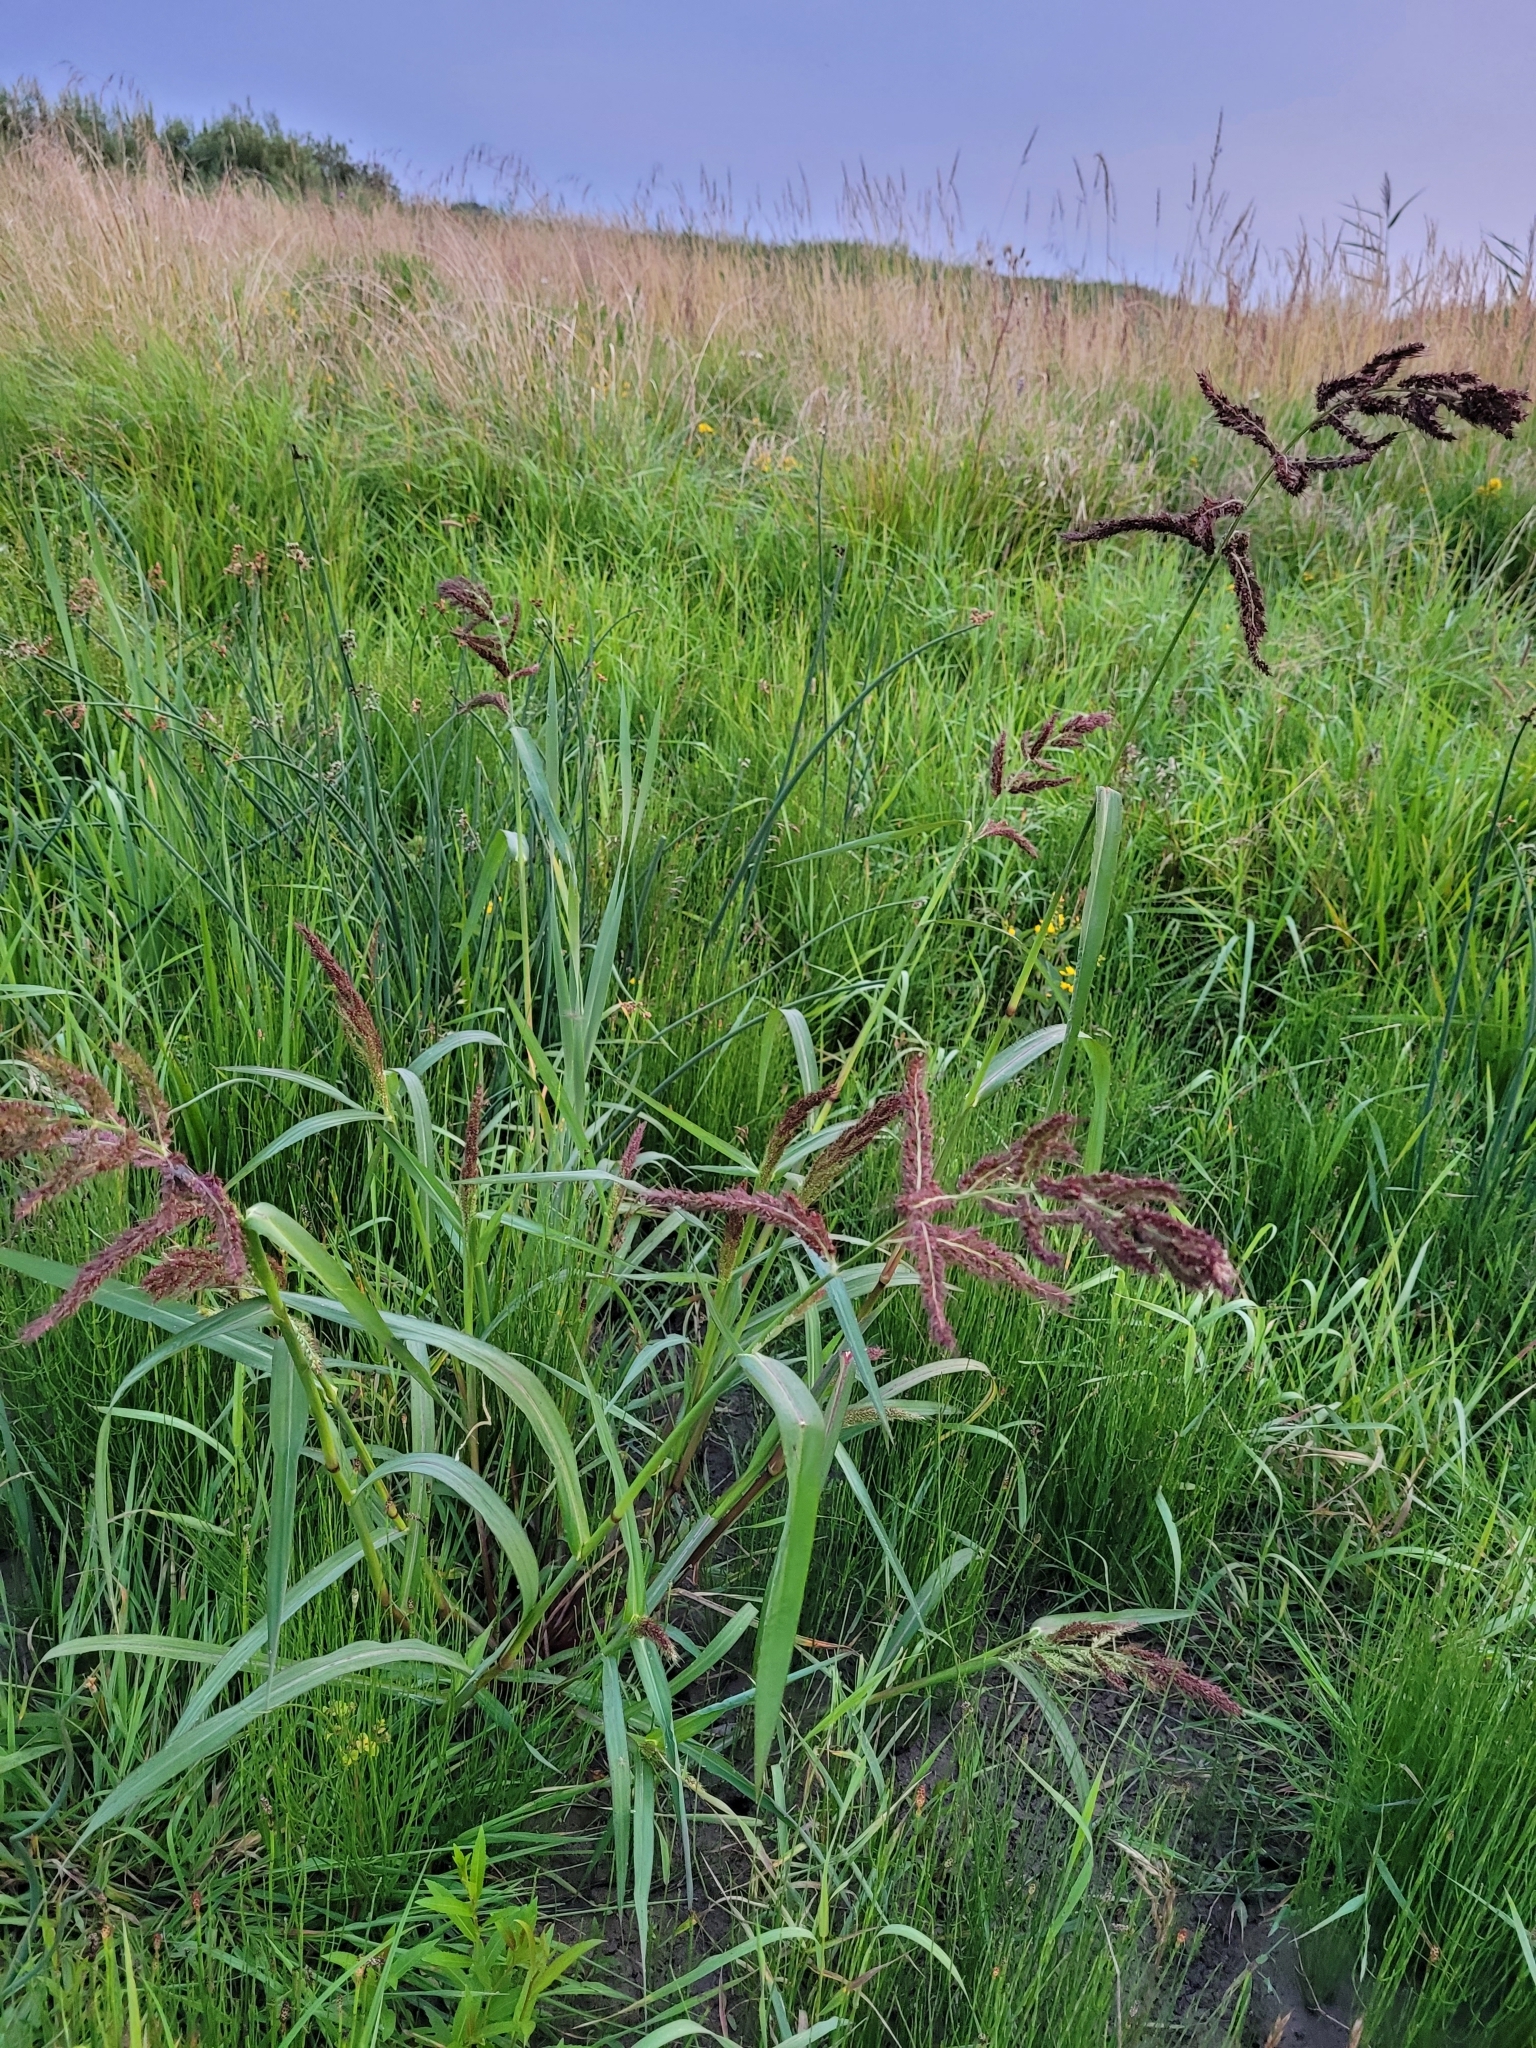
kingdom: Plantae
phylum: Tracheophyta
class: Liliopsida
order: Poales
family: Poaceae
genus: Echinochloa
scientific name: Echinochloa crus-galli
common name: Cockspur
